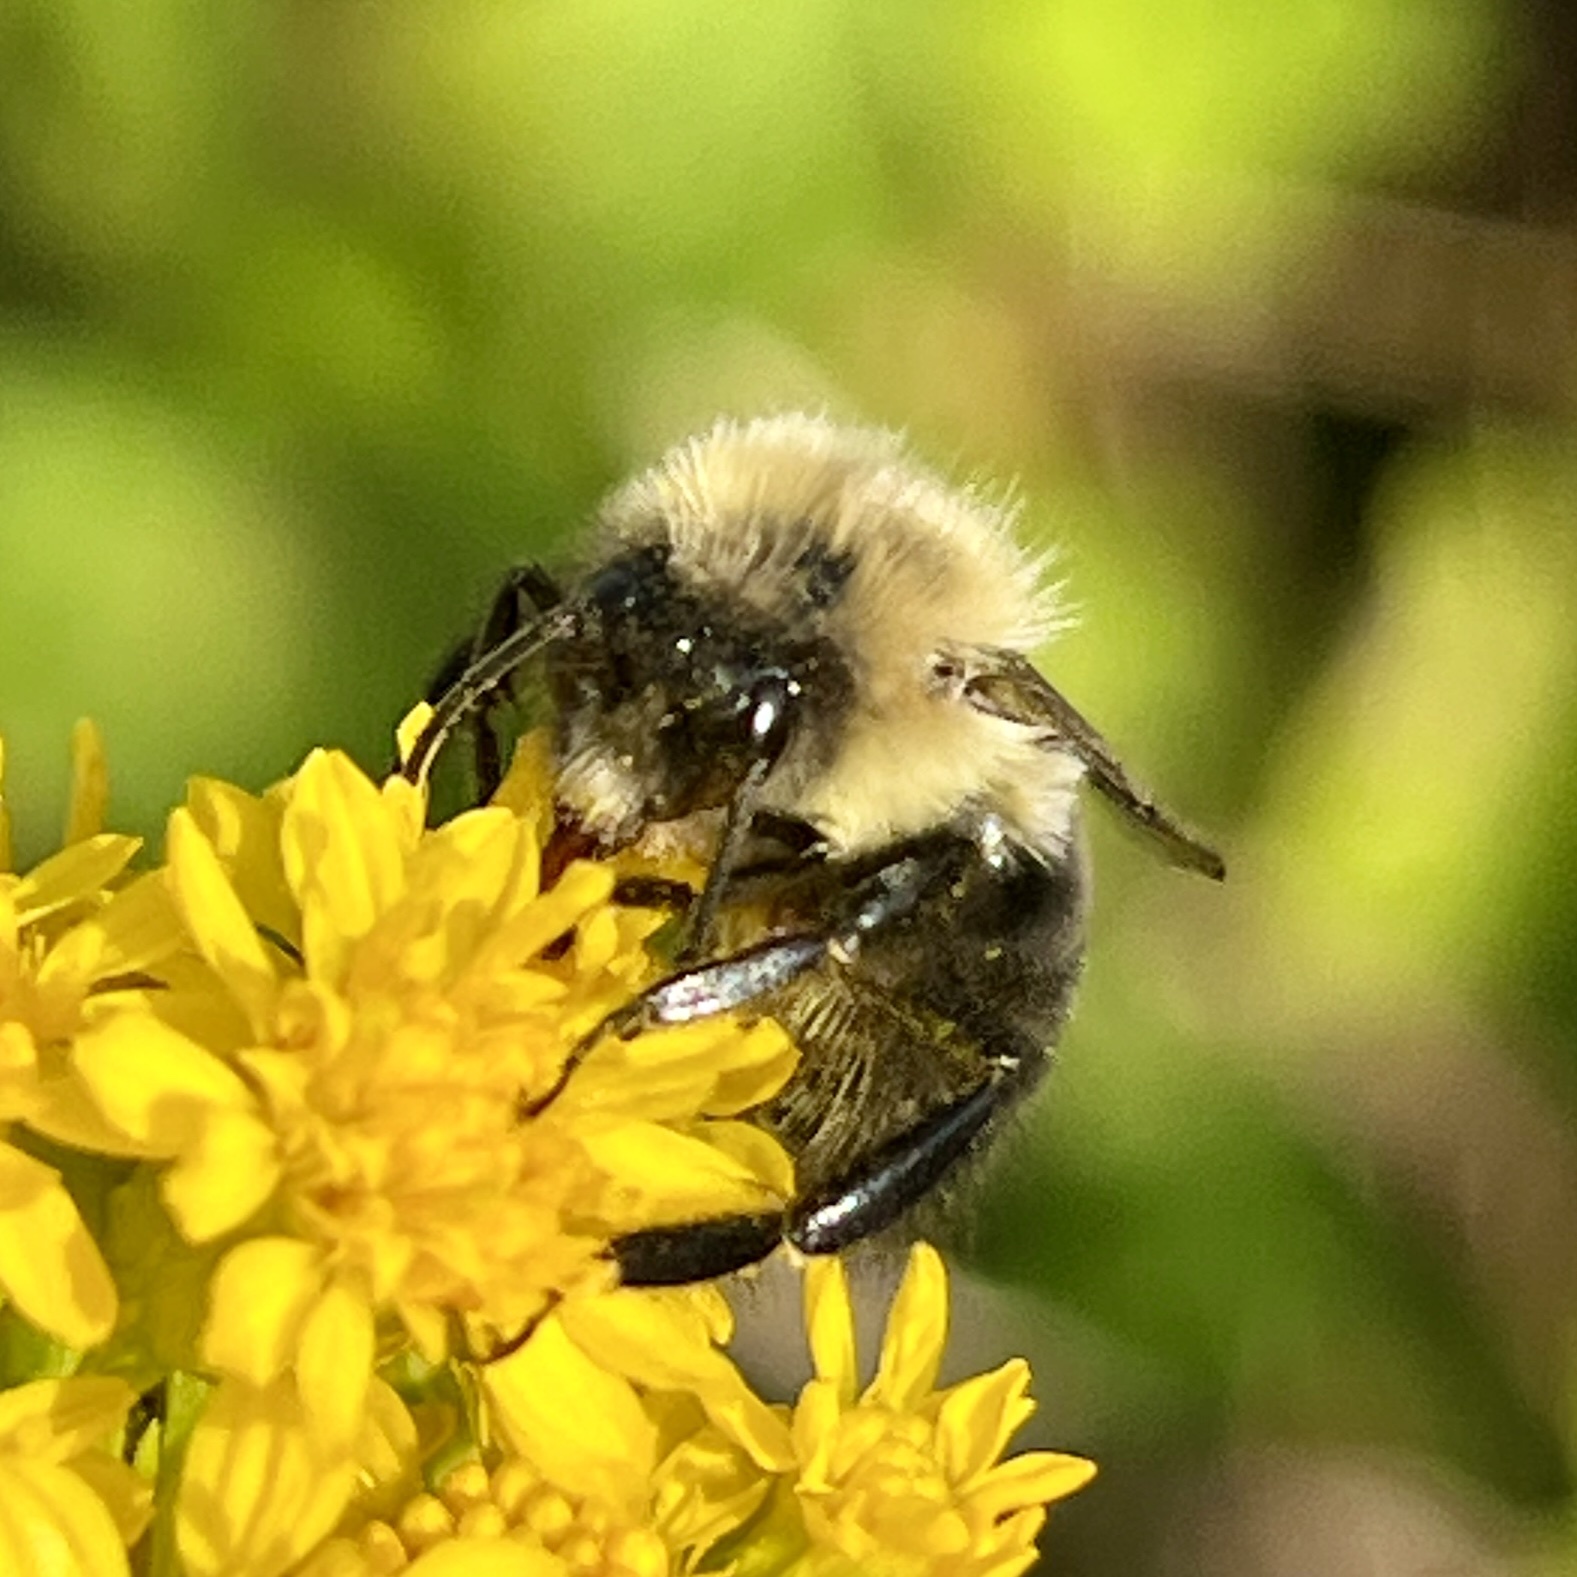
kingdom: Animalia
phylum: Arthropoda
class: Insecta
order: Hymenoptera
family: Apidae
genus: Bombus
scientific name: Bombus impatiens
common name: Common eastern bumble bee
